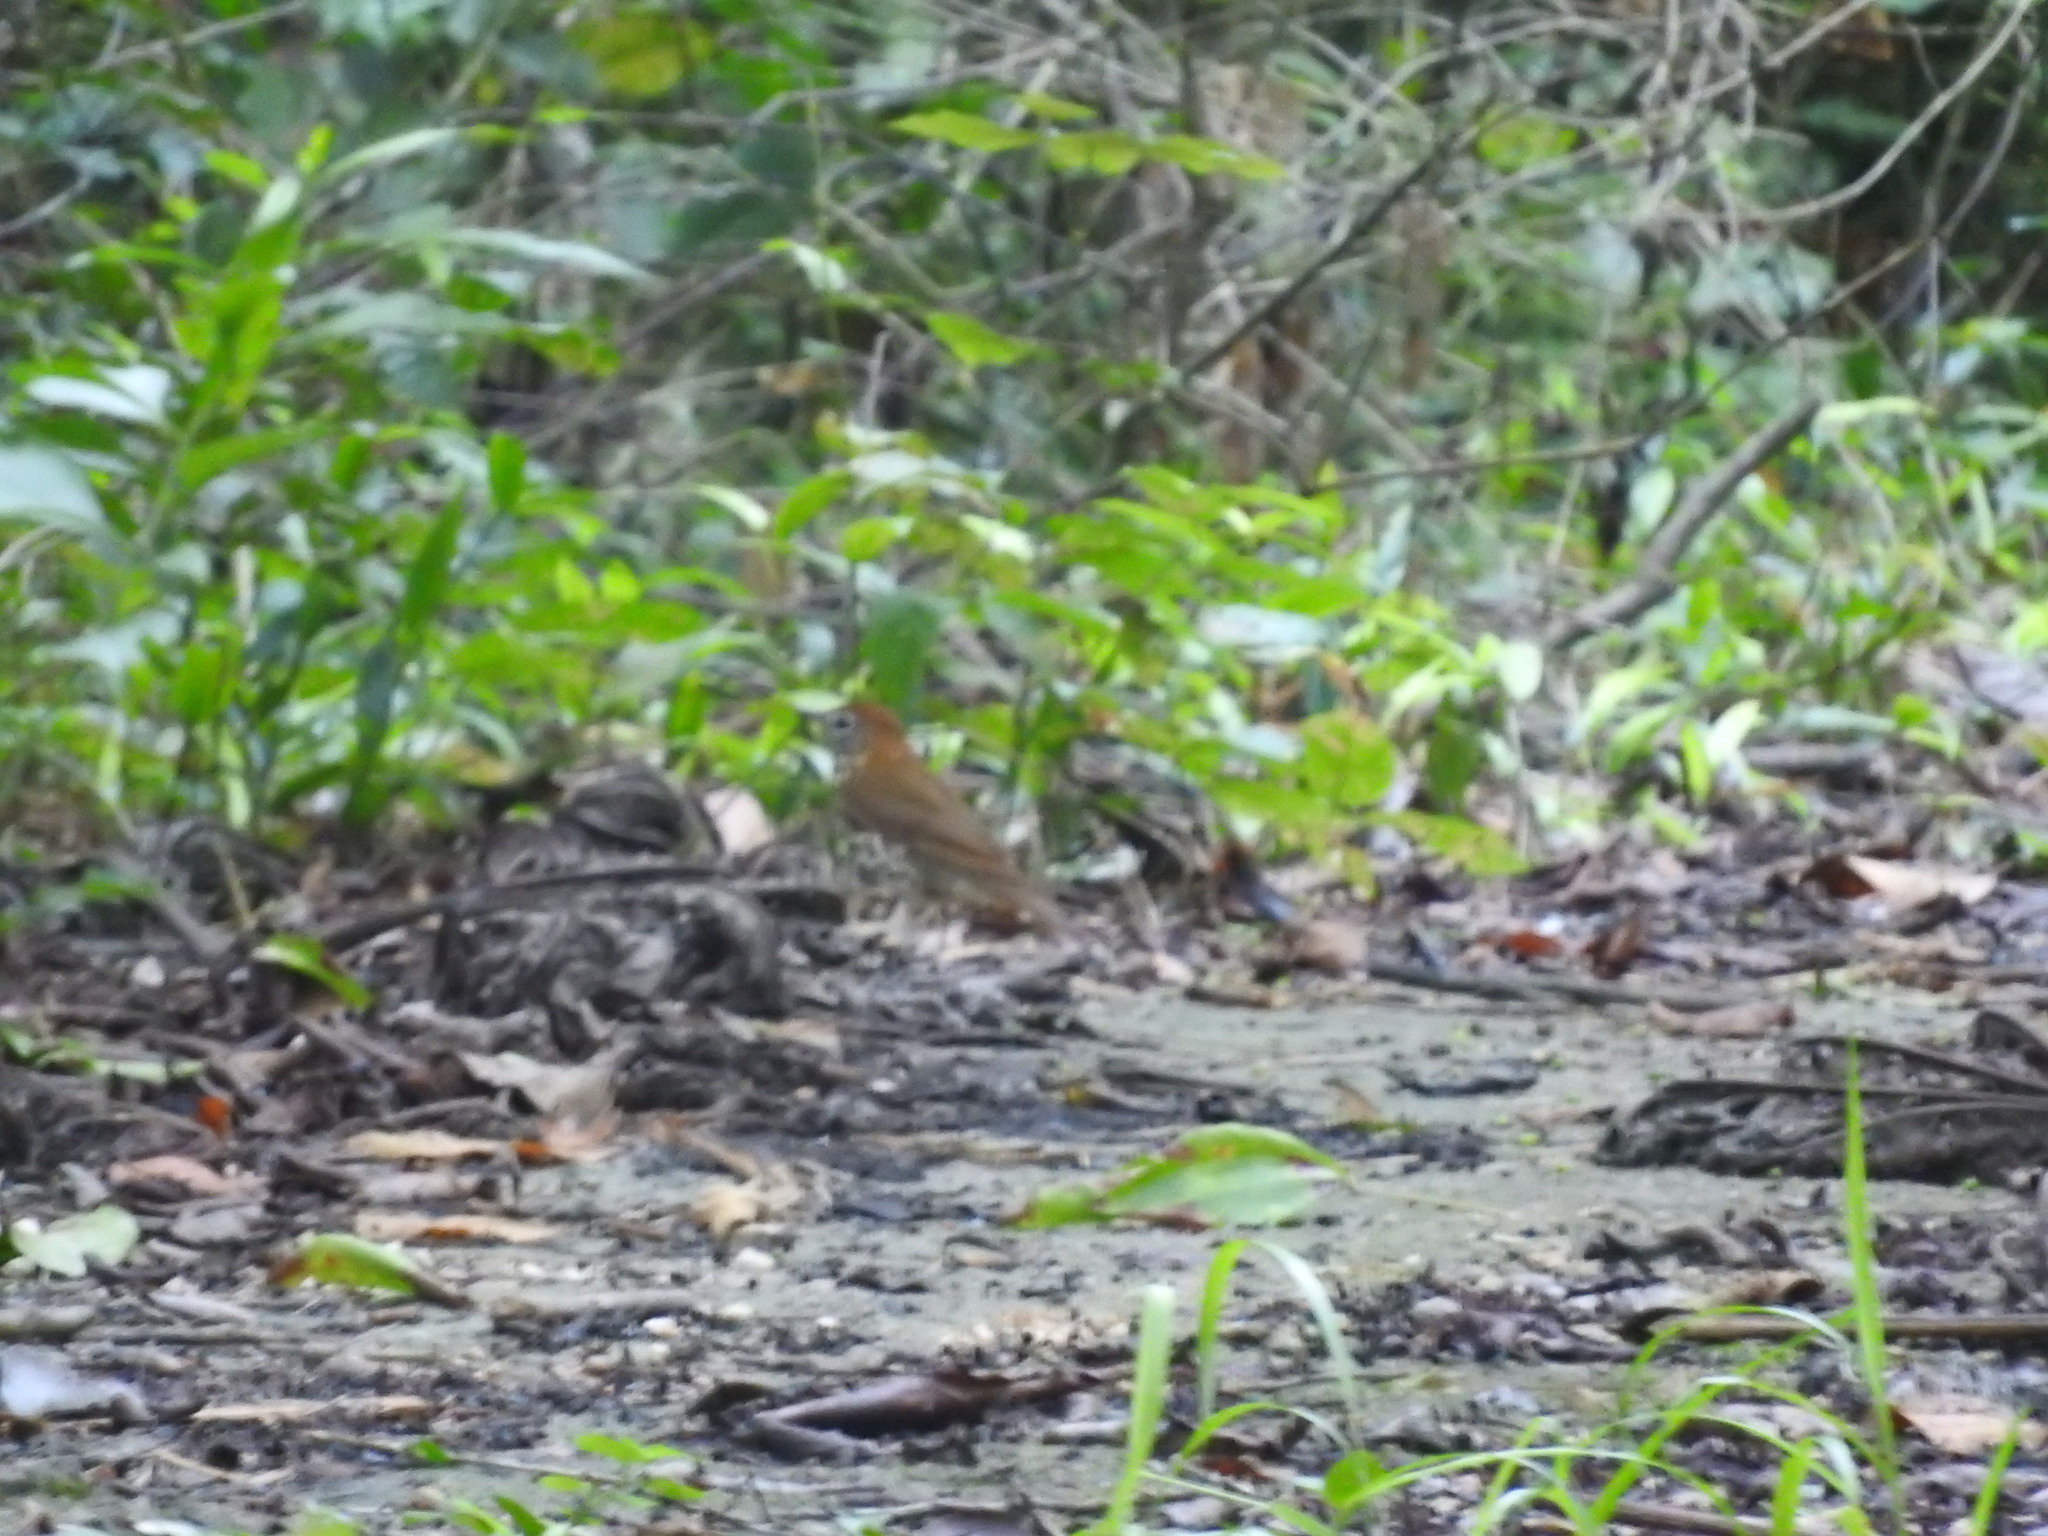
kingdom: Animalia
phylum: Chordata
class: Aves
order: Passeriformes
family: Turdidae
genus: Hylocichla
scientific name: Hylocichla mustelina
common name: Wood thrush
